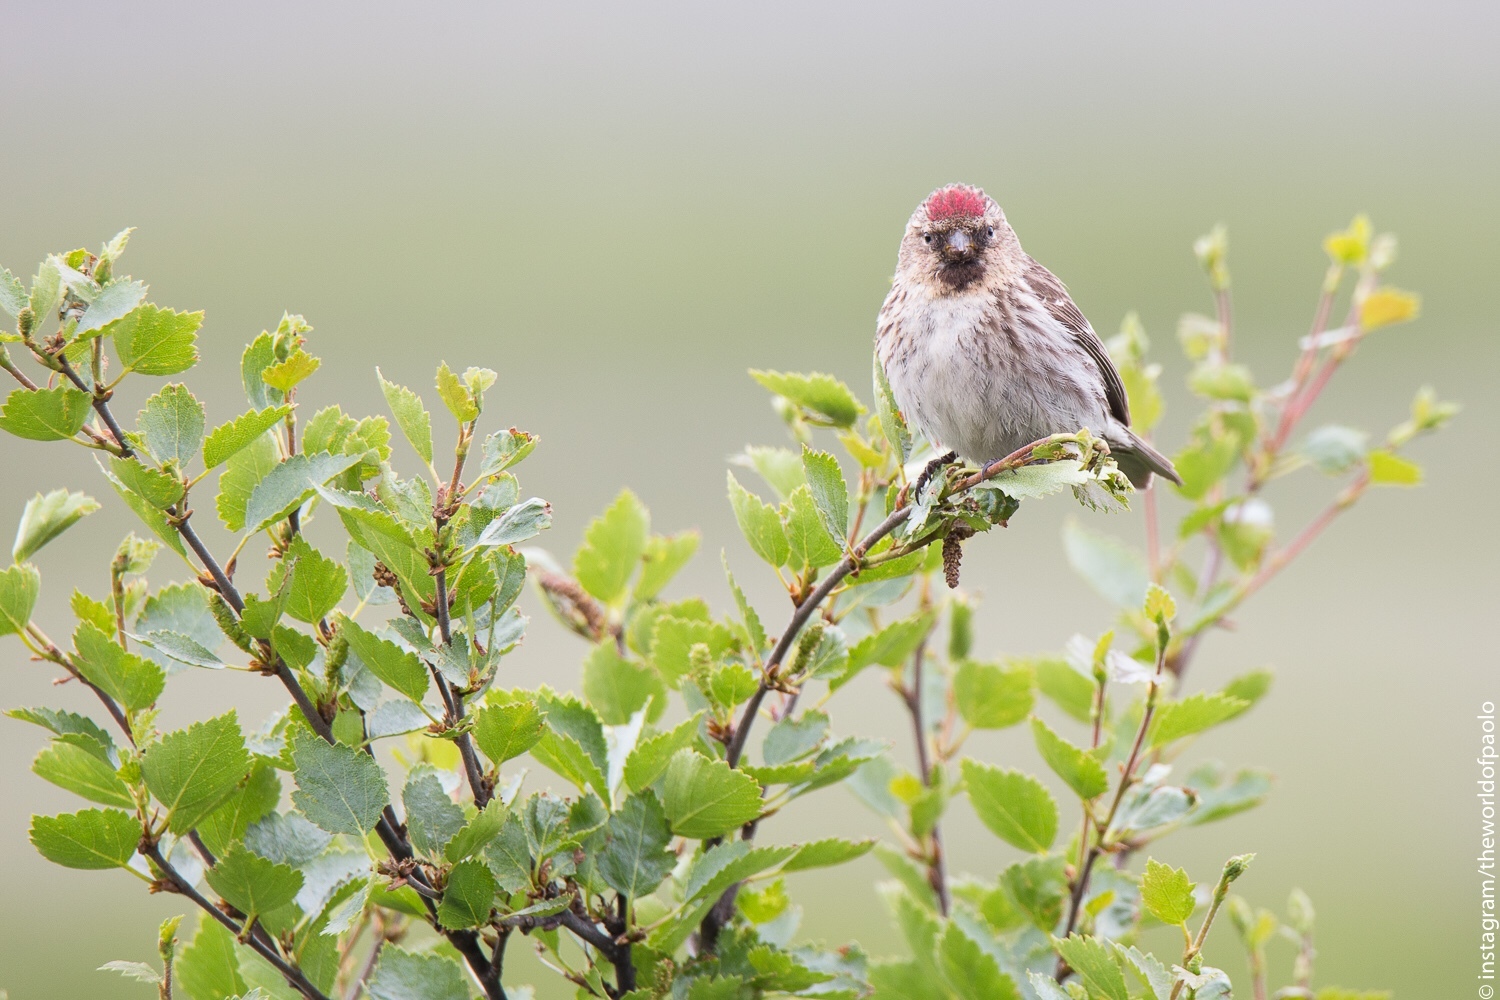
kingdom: Animalia
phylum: Chordata
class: Aves
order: Passeriformes
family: Fringillidae
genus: Acanthis
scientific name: Acanthis flammea
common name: Common redpoll
